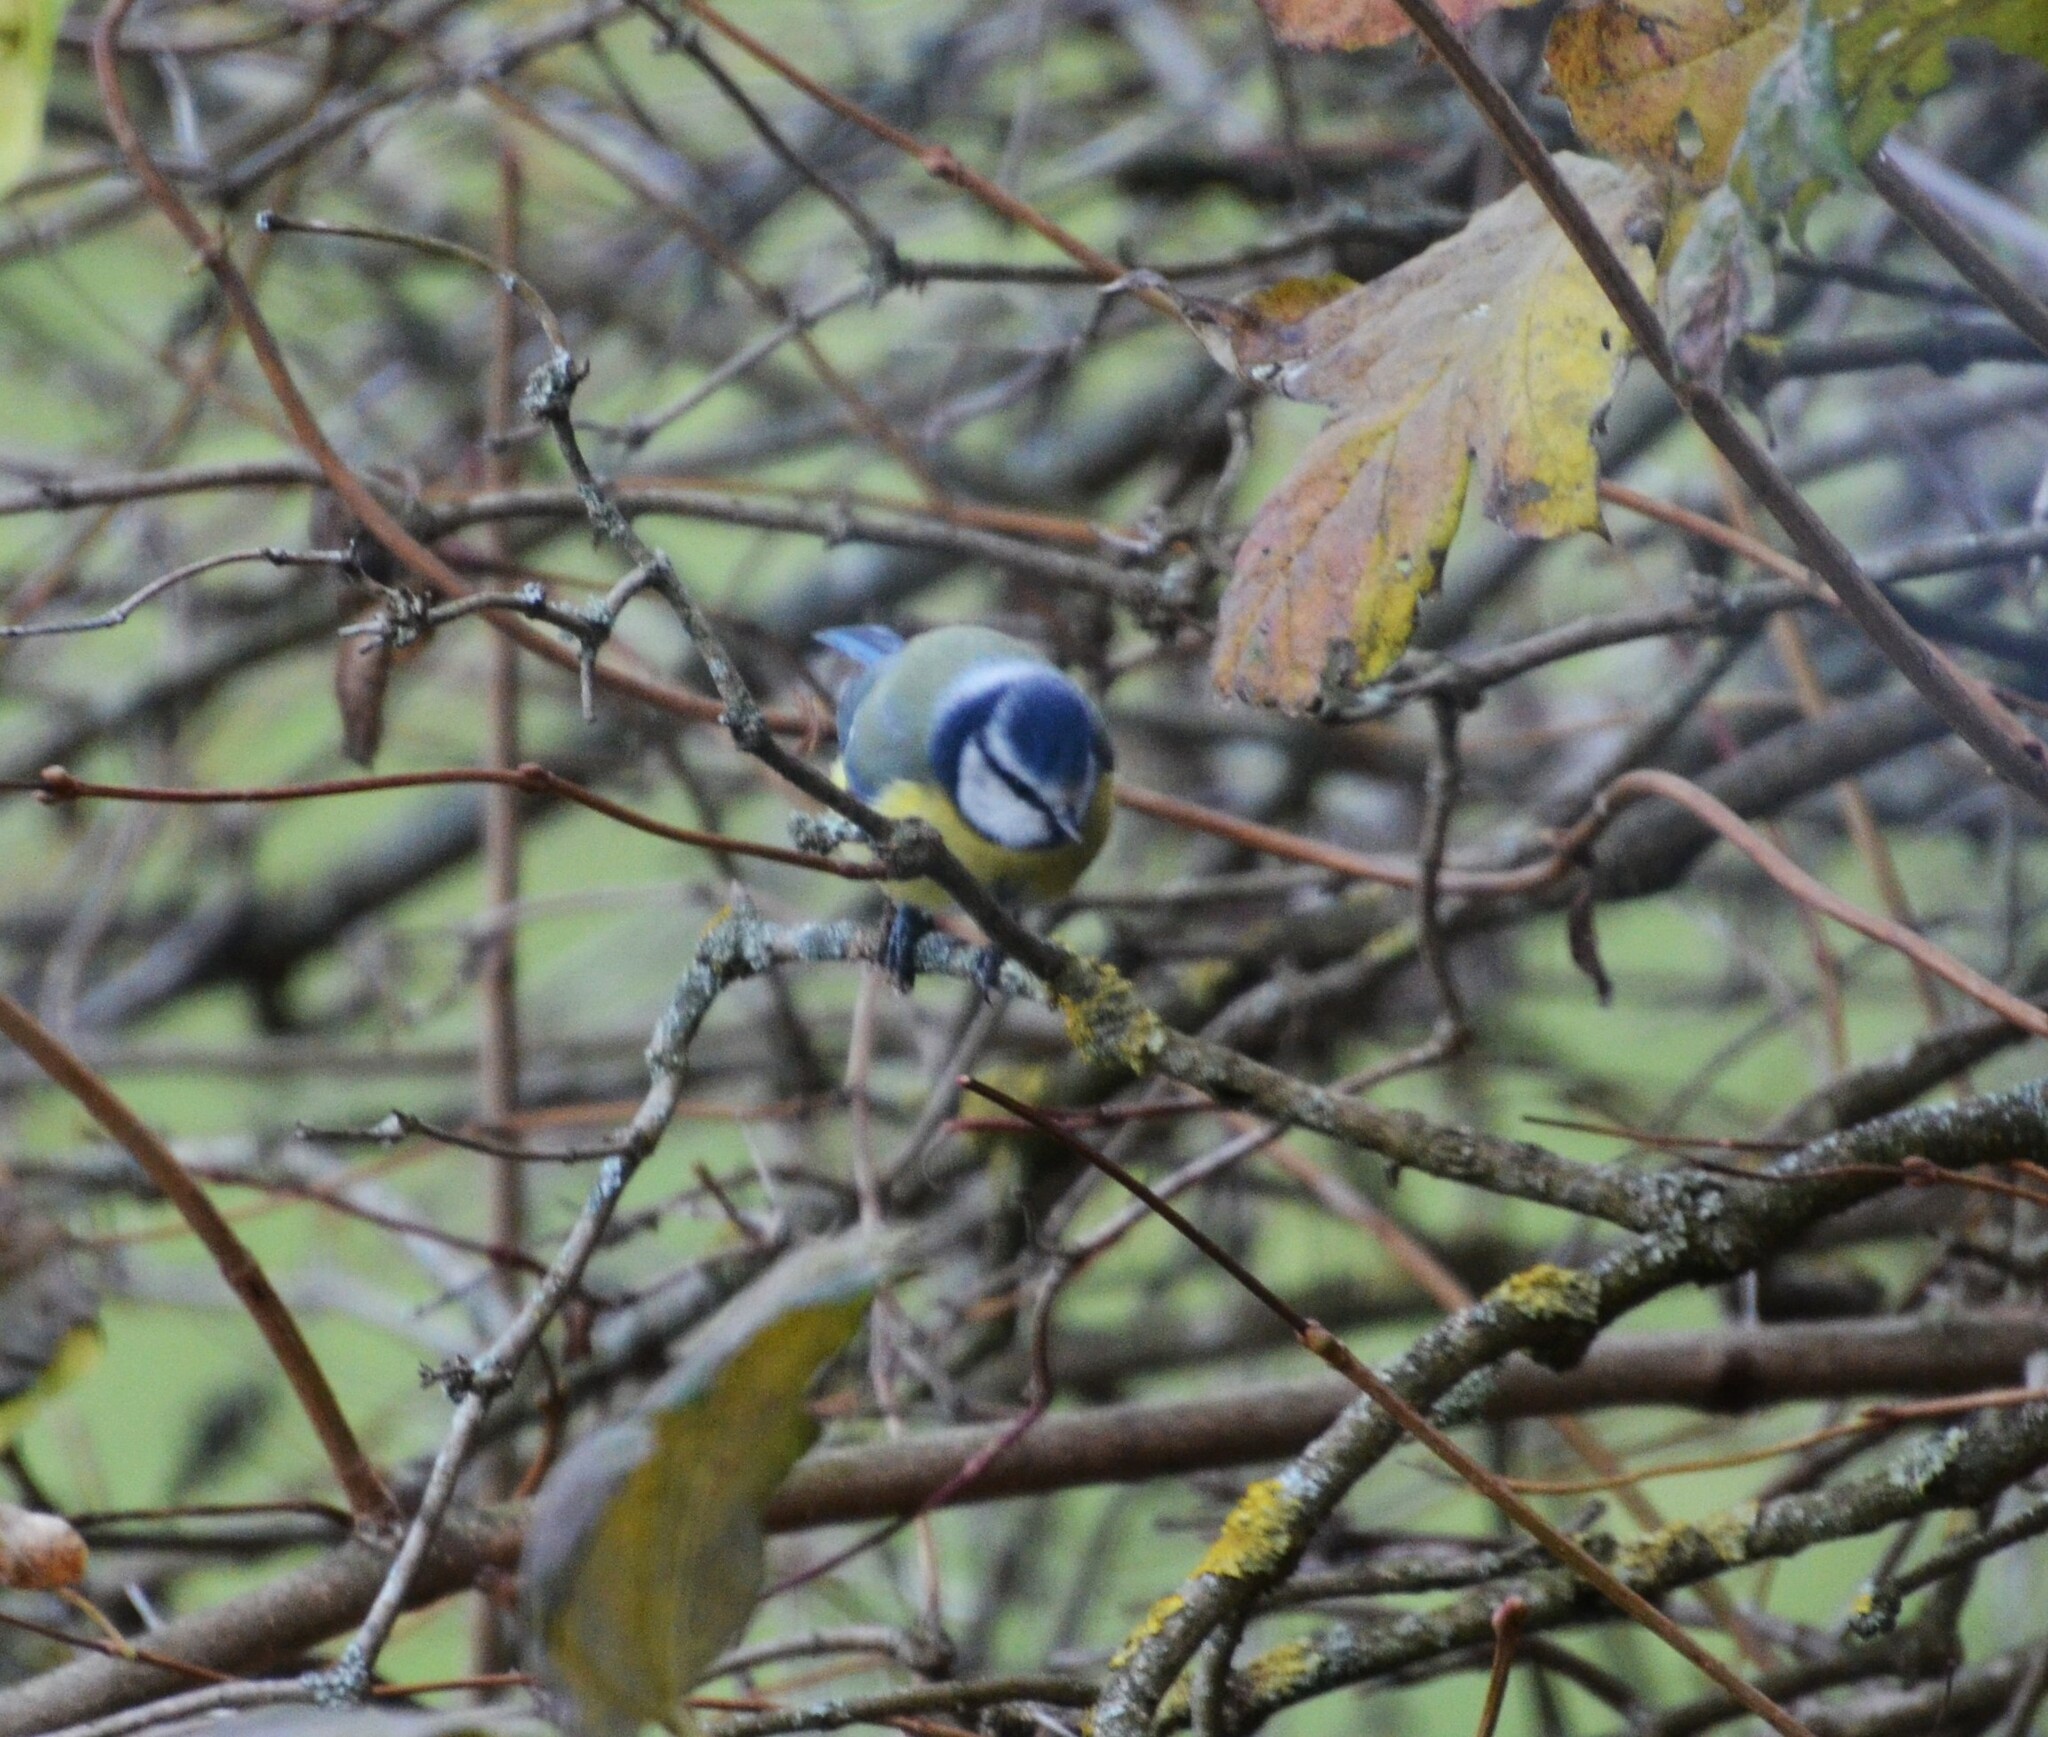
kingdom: Animalia
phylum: Chordata
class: Aves
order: Passeriformes
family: Paridae
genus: Cyanistes
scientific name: Cyanistes caeruleus
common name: Eurasian blue tit
